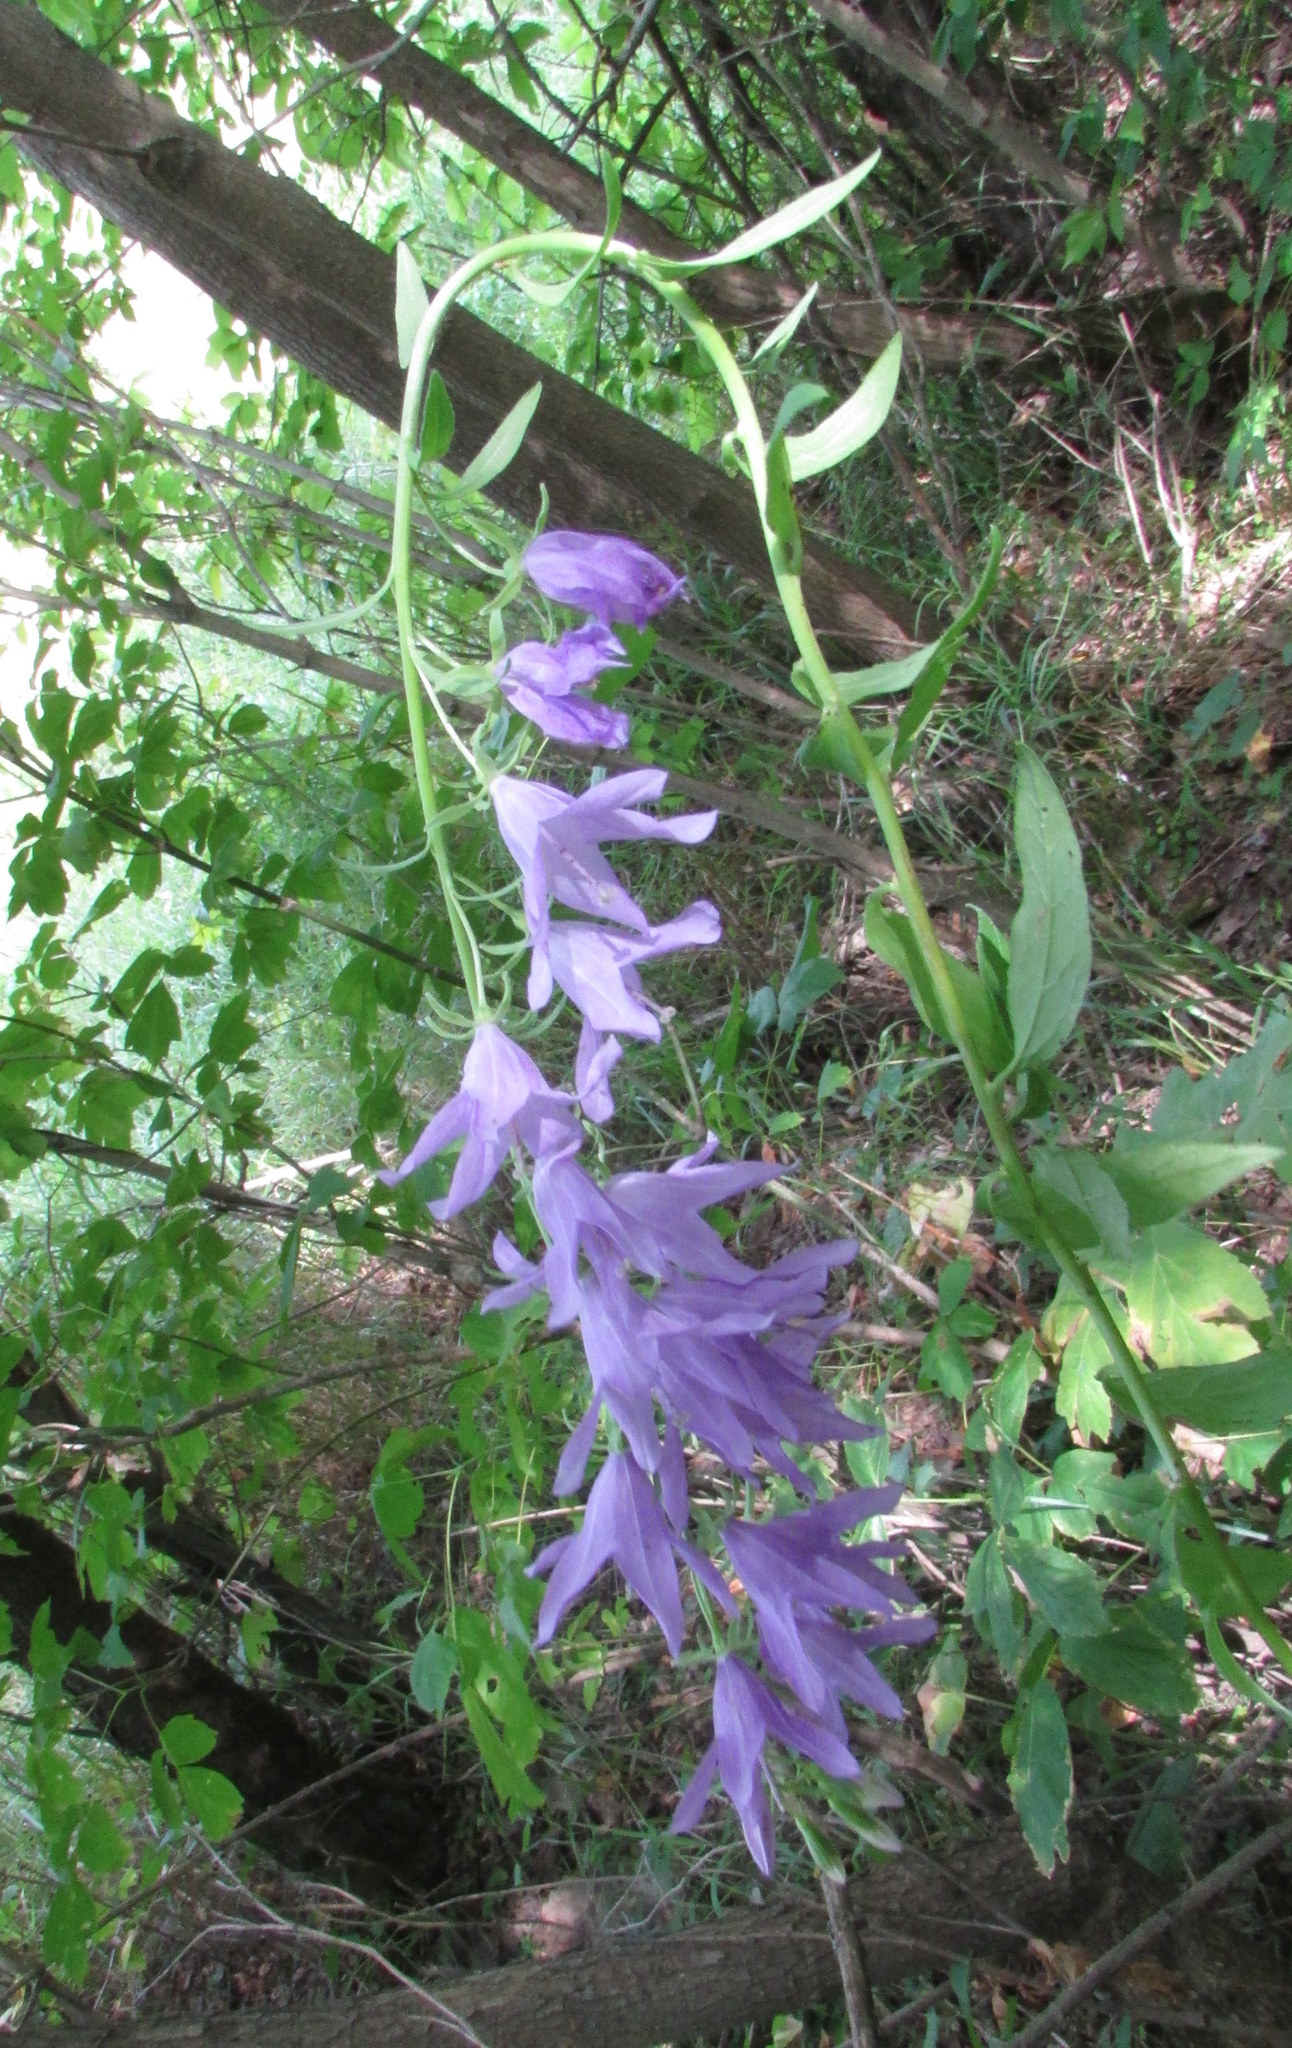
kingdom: Plantae
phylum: Tracheophyta
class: Magnoliopsida
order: Asterales
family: Campanulaceae
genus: Campanula
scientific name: Campanula rapunculoides
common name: Creeping bellflower
